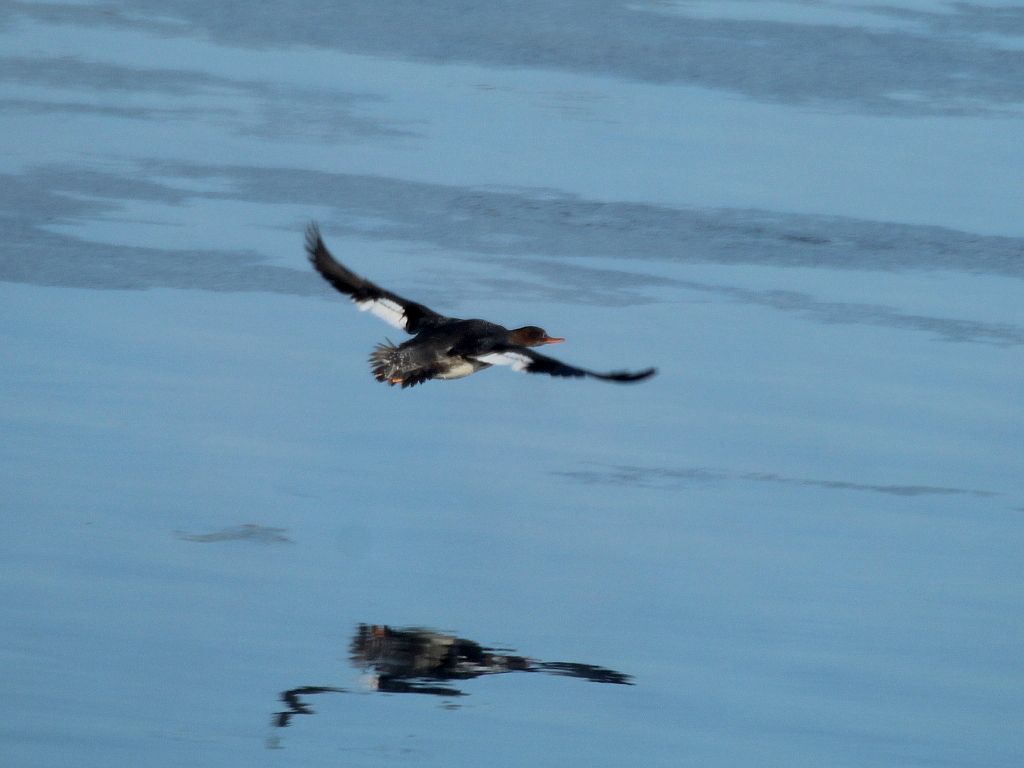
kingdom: Animalia
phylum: Chordata
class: Aves
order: Anseriformes
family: Anatidae
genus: Mergus
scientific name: Mergus serrator
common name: Red-breasted merganser
